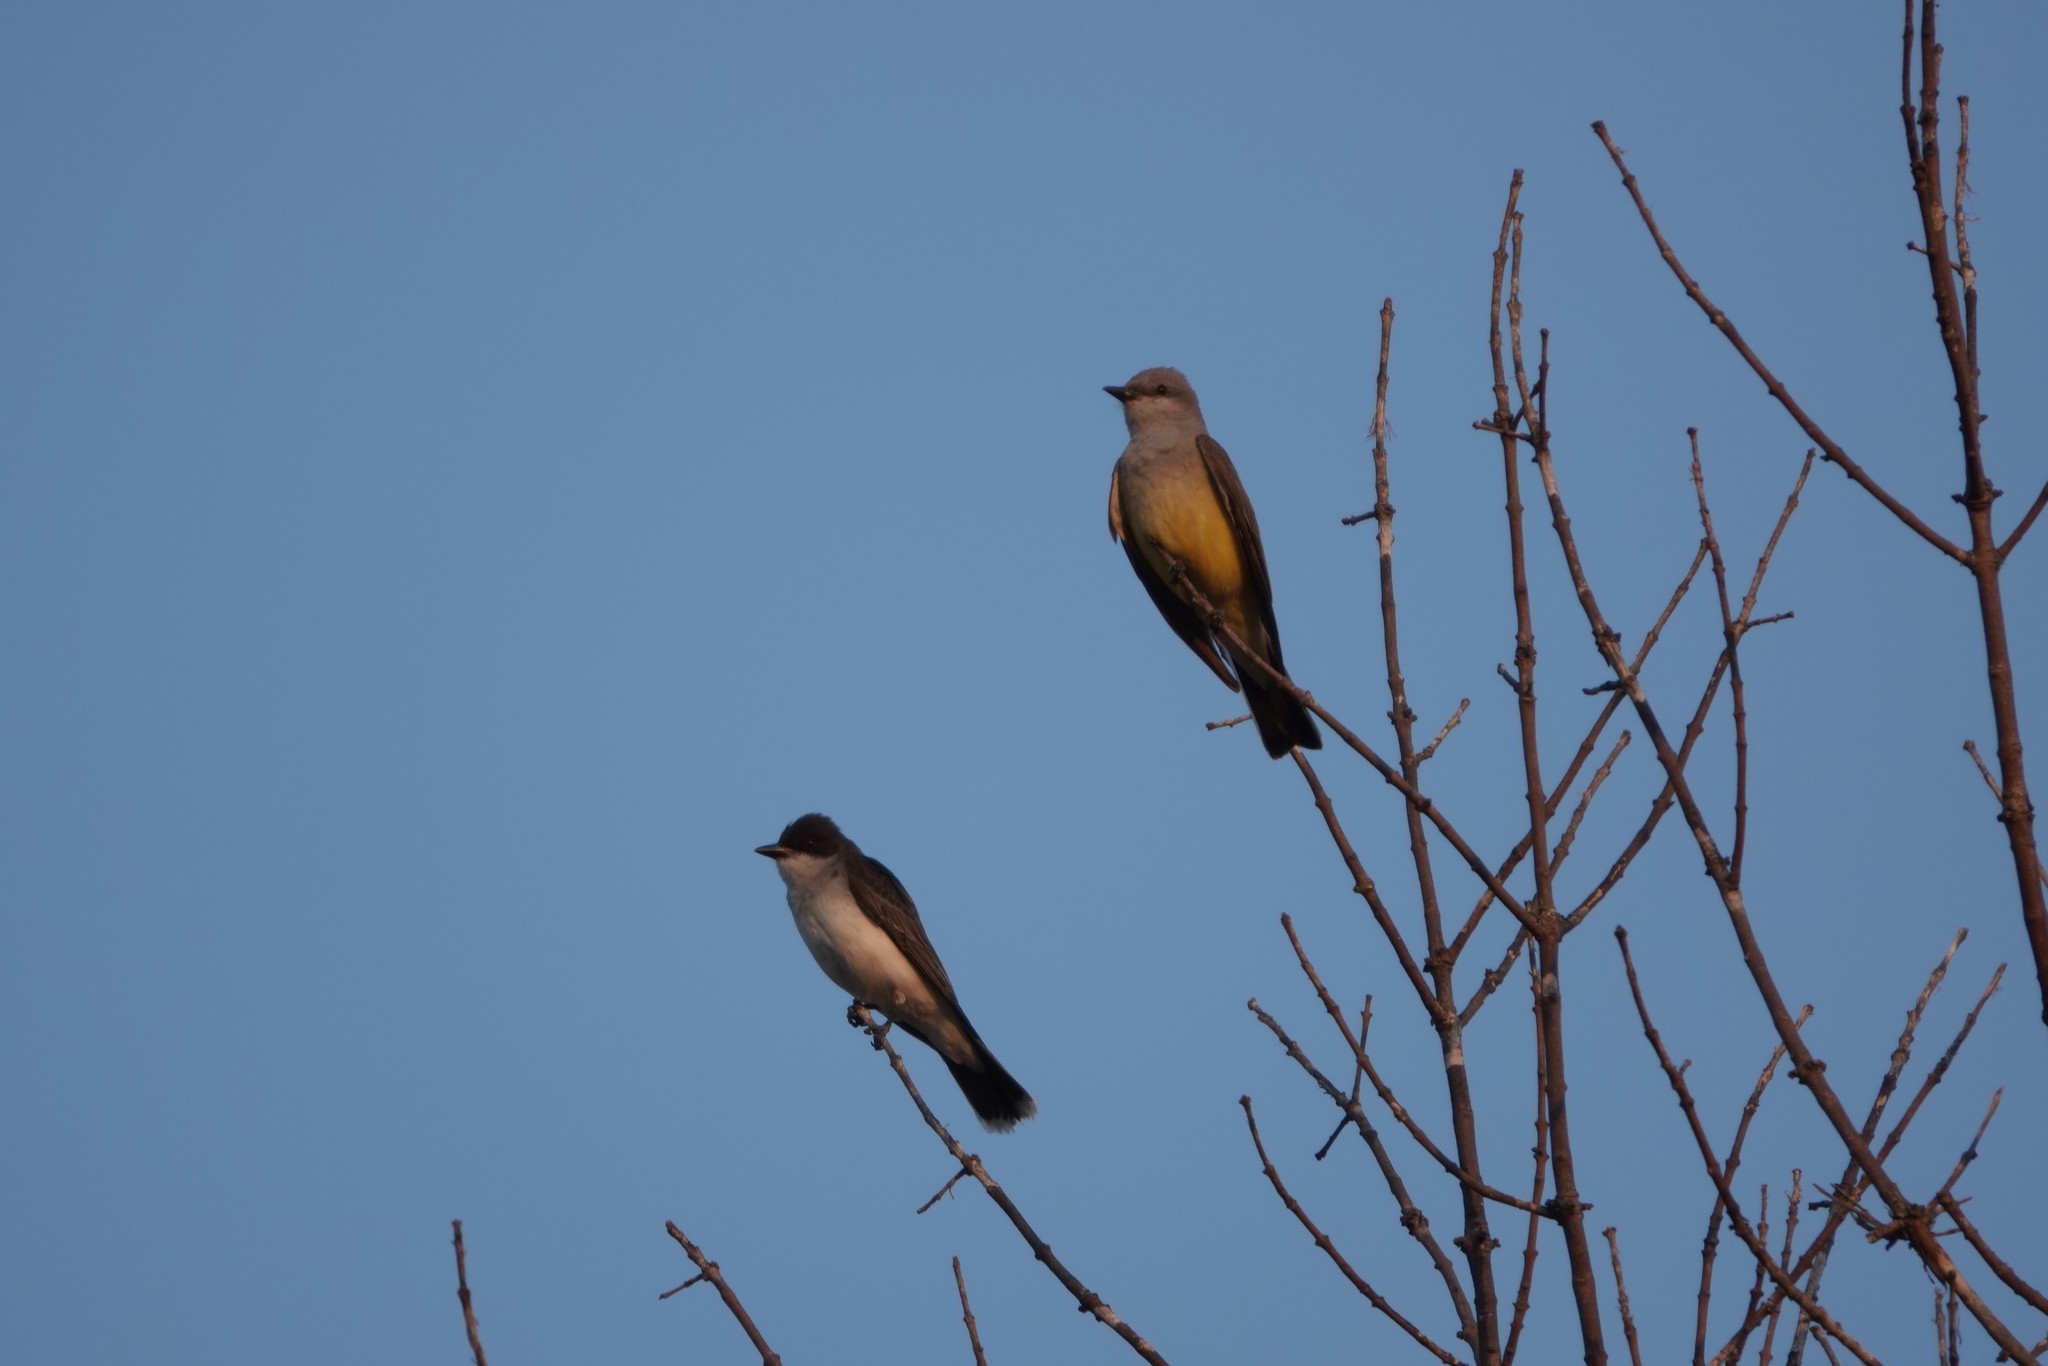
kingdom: Animalia
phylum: Chordata
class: Aves
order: Passeriformes
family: Tyrannidae
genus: Tyrannus
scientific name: Tyrannus verticalis
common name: Western kingbird
